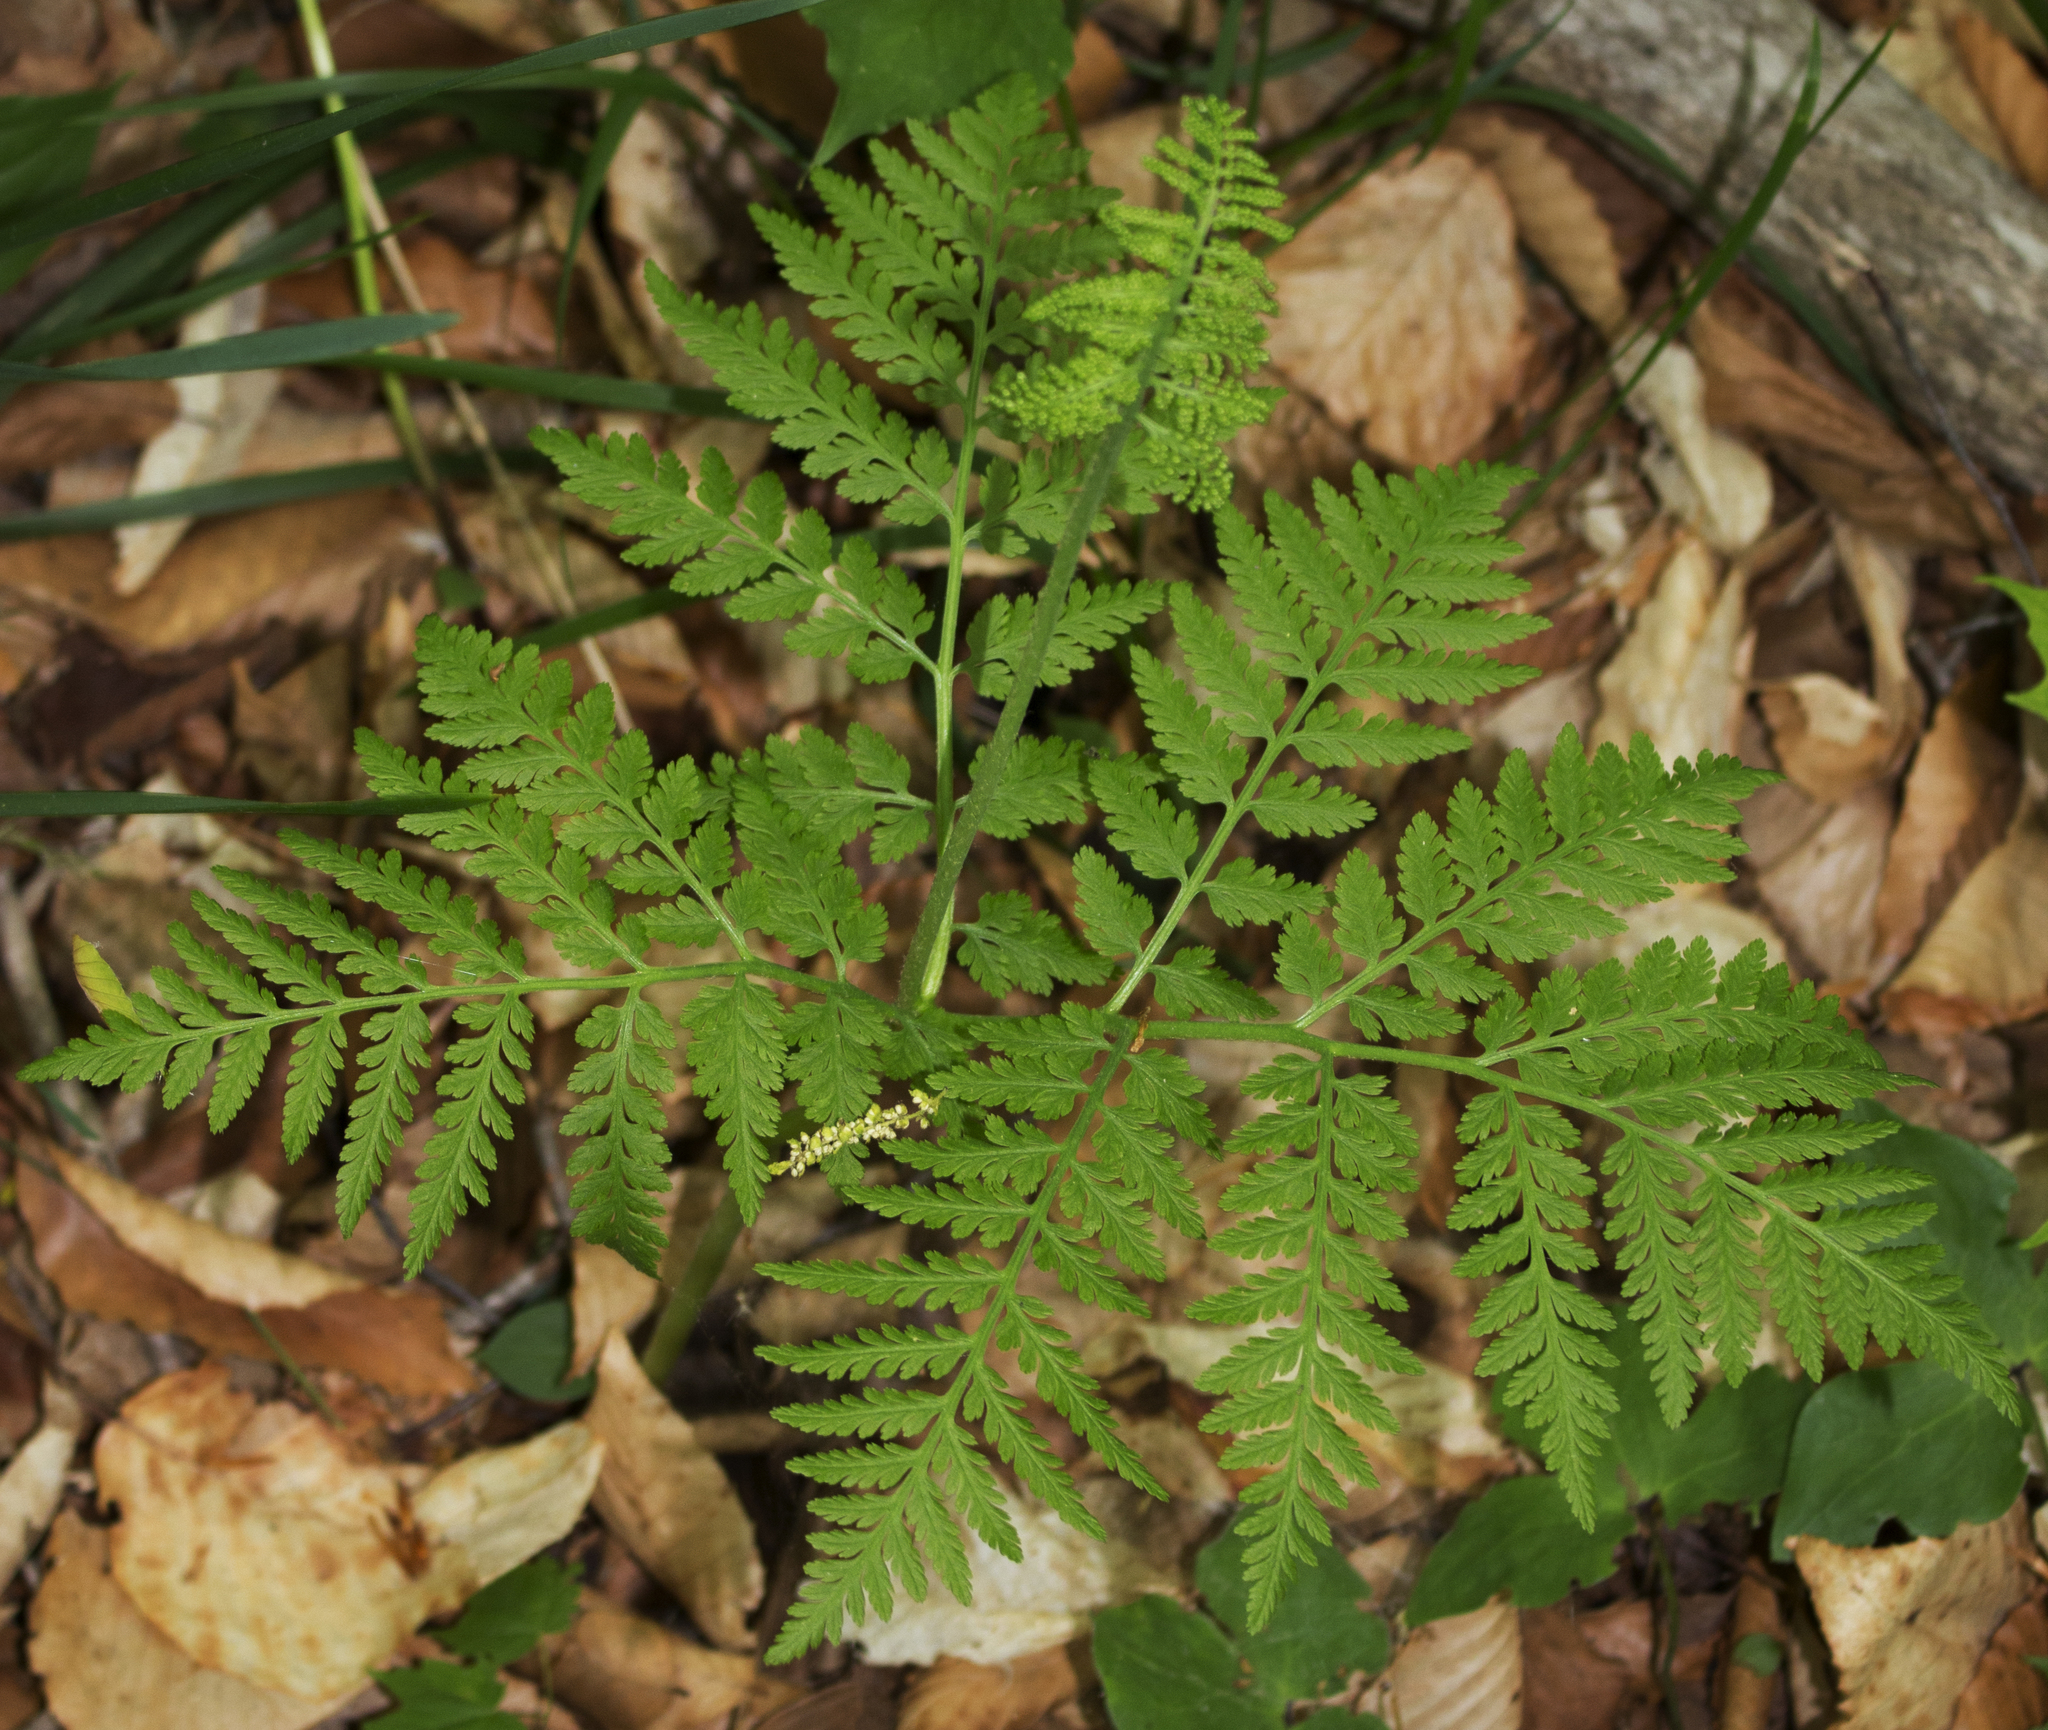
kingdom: Plantae
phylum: Tracheophyta
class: Polypodiopsida
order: Ophioglossales
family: Ophioglossaceae
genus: Botrypus
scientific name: Botrypus virginianus
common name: Common grapefern
